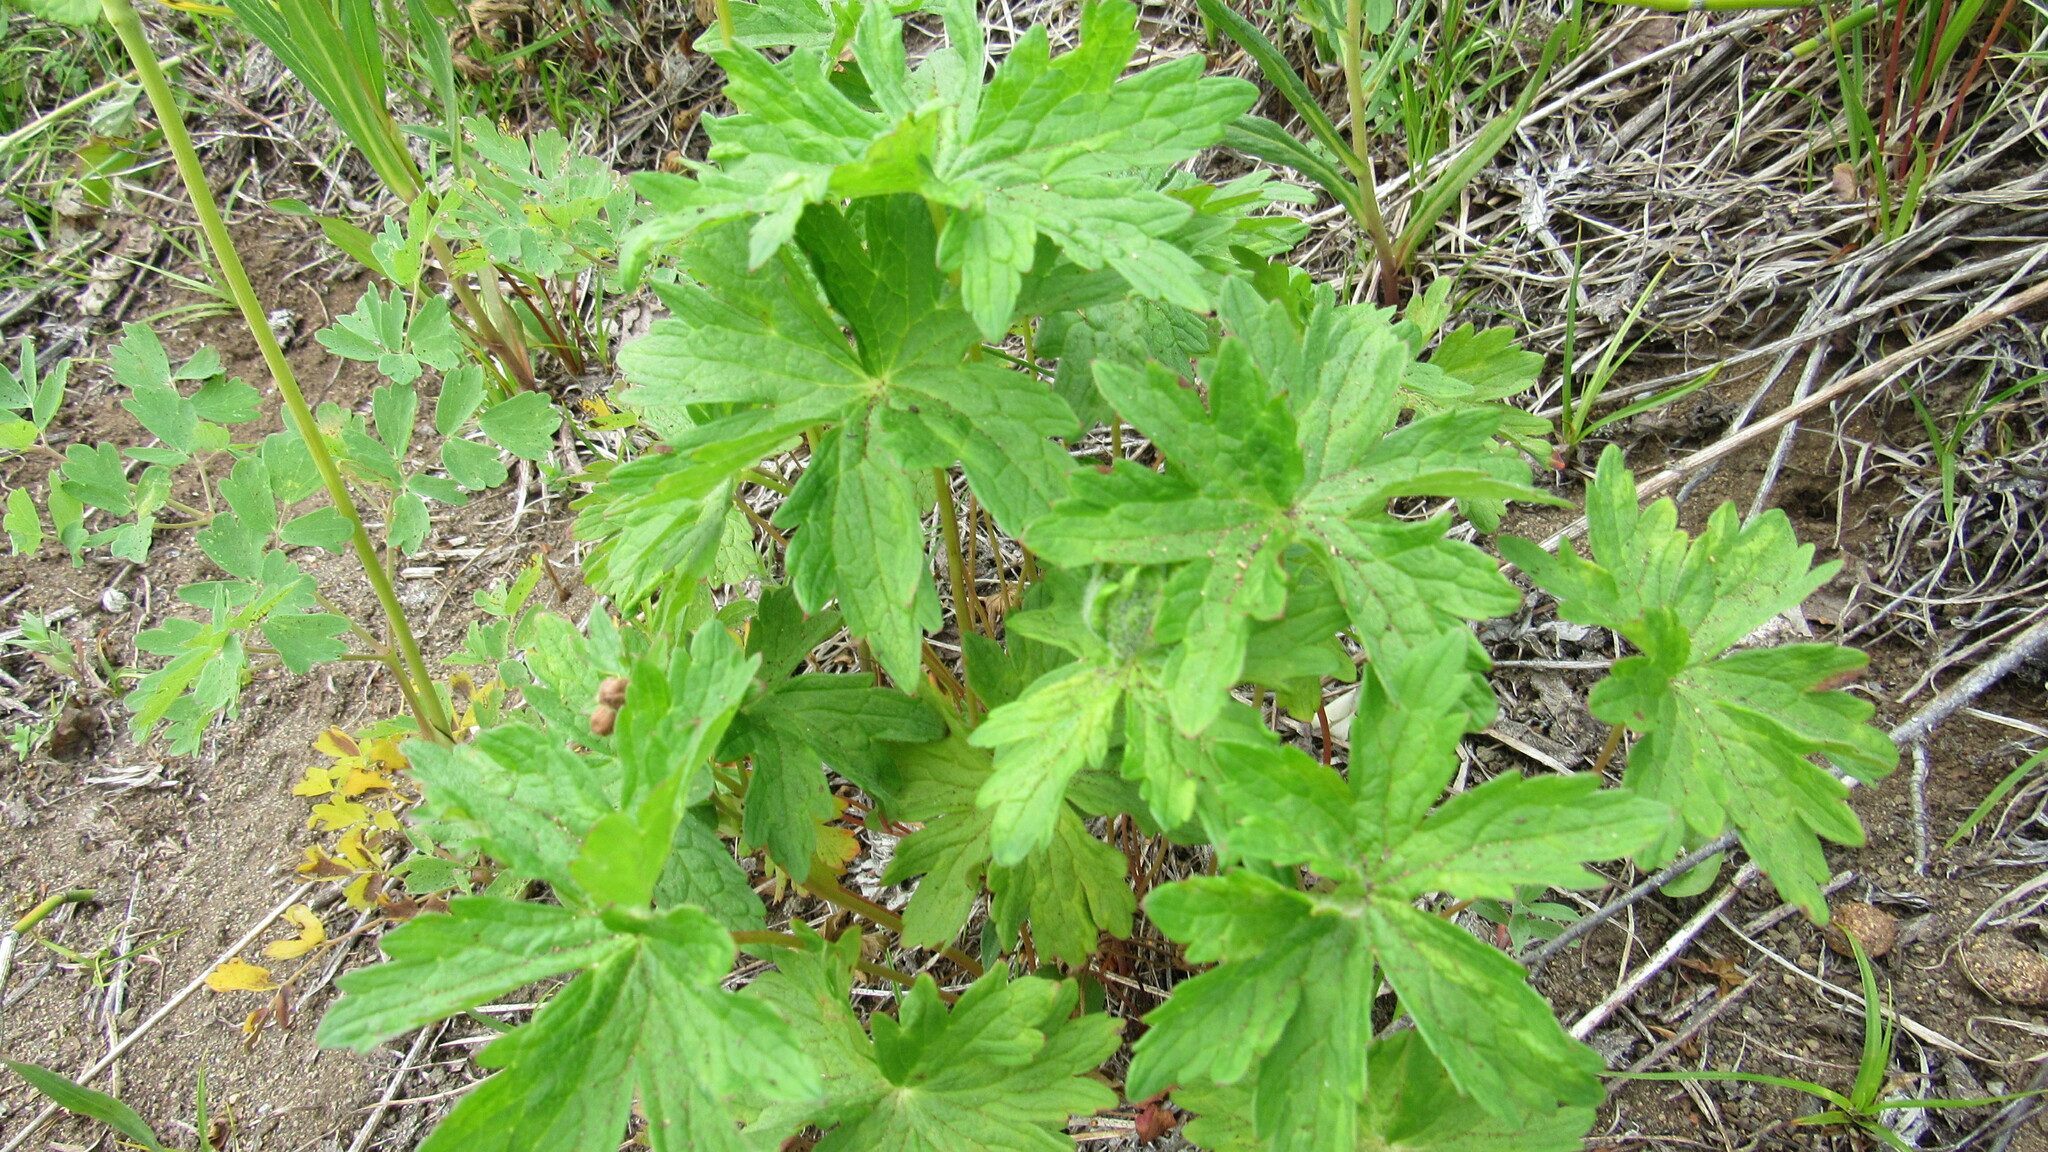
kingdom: Plantae
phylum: Tracheophyta
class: Magnoliopsida
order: Geraniales
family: Geraniaceae
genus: Geranium
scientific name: Geranium erianthum
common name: Northern crane's-bill
